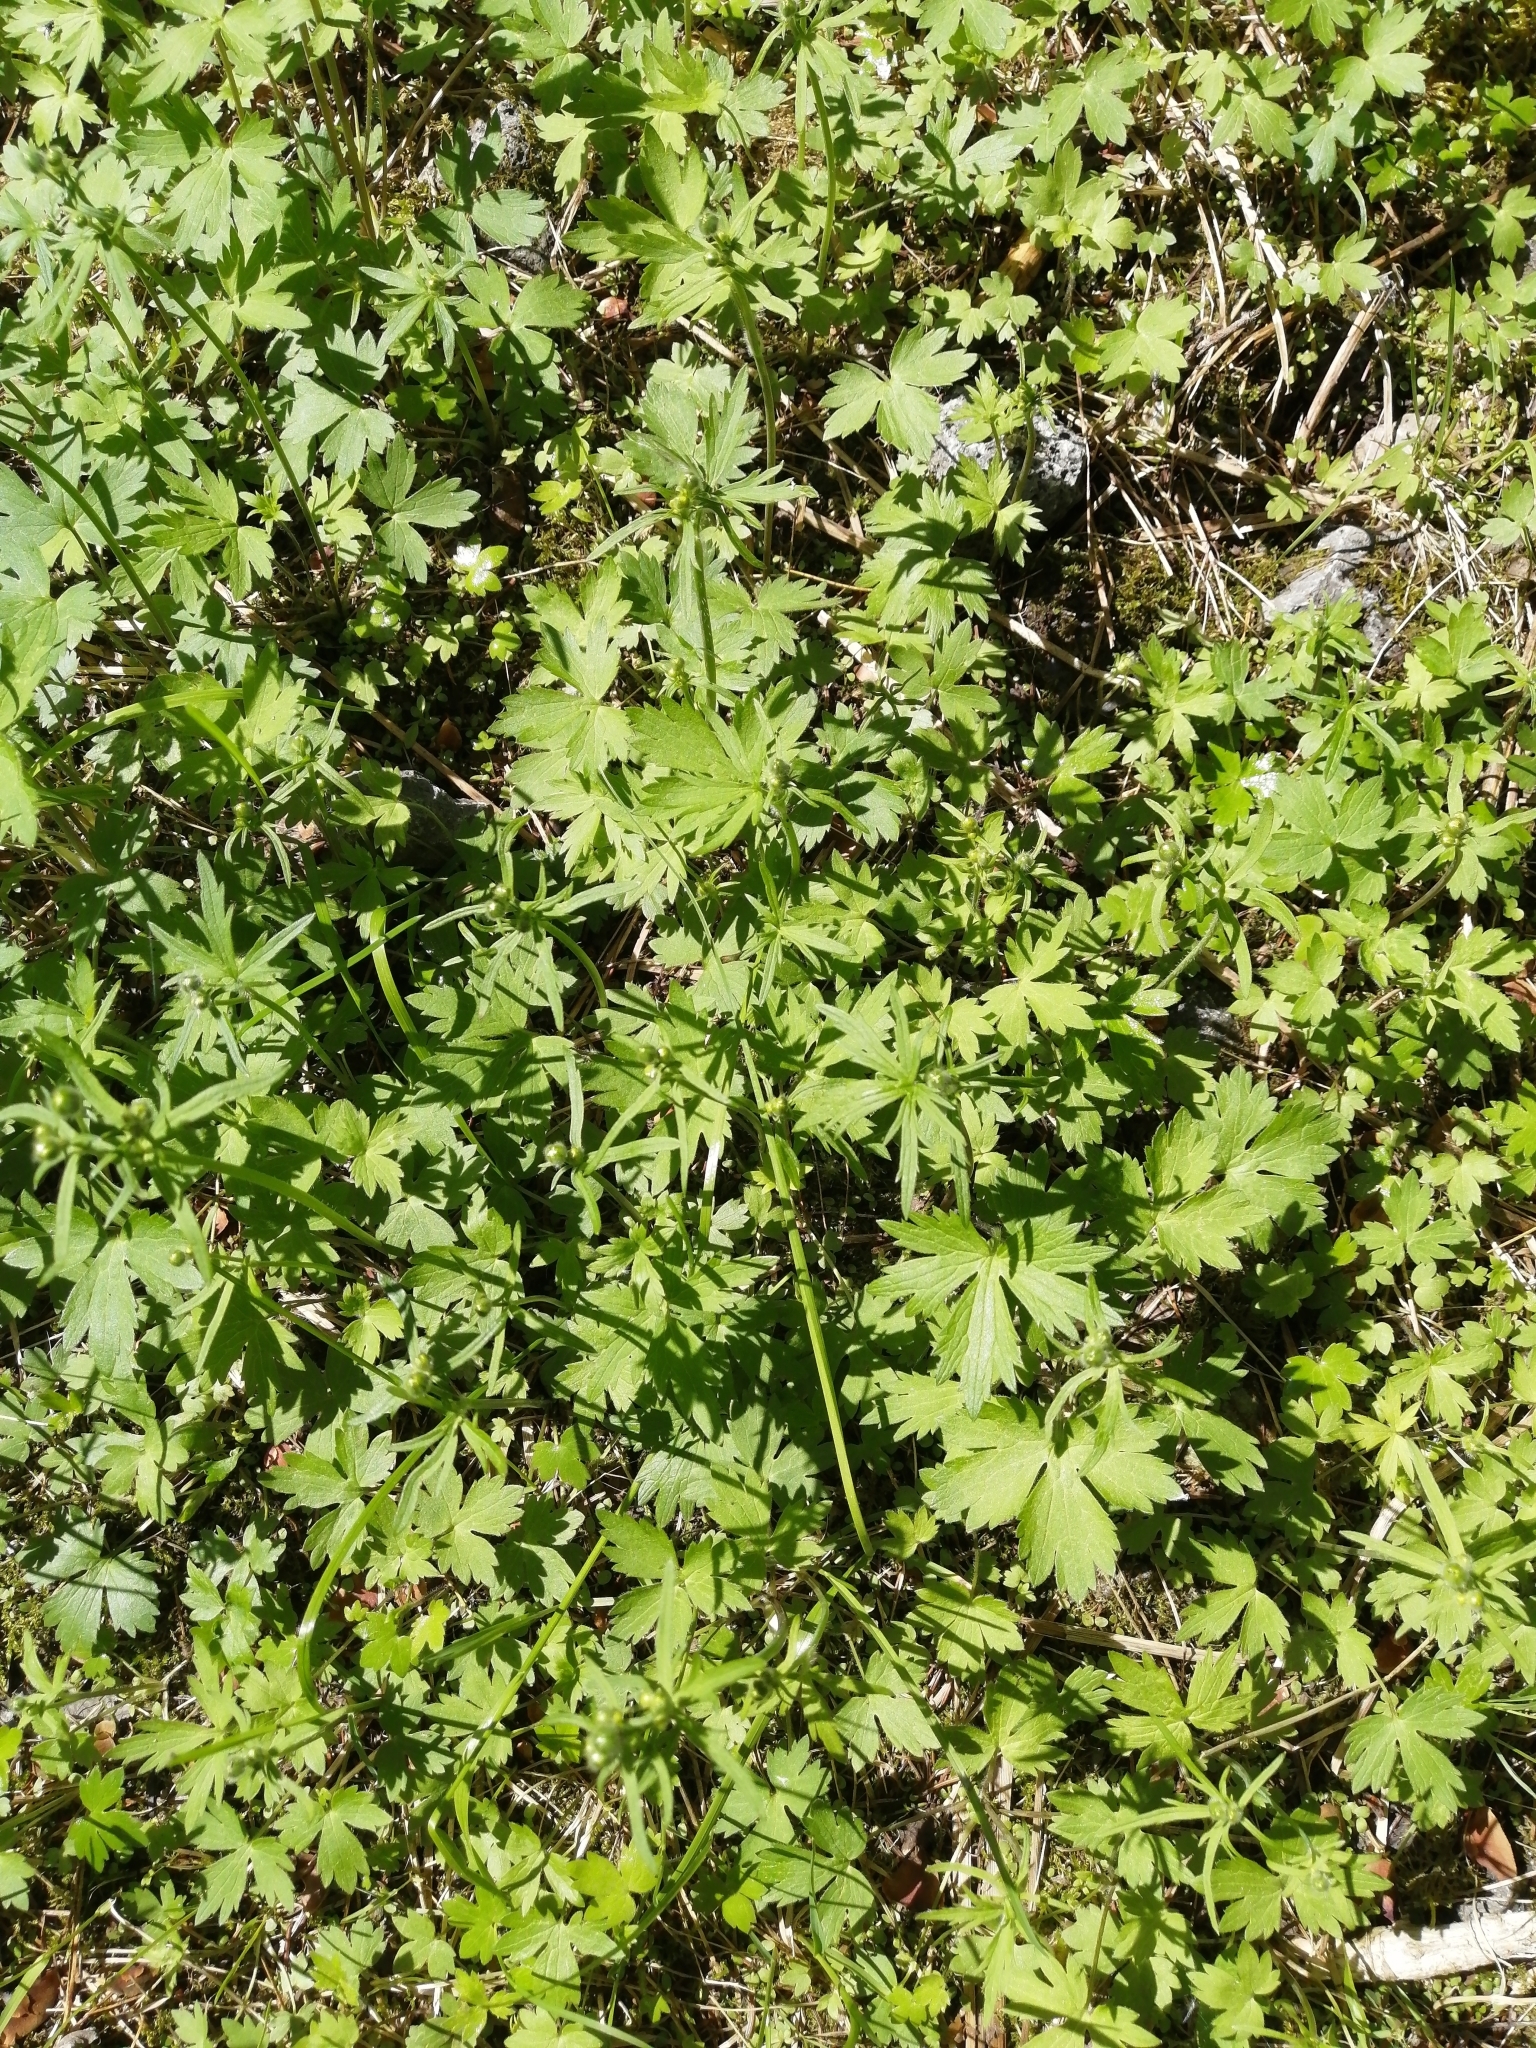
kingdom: Plantae
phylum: Tracheophyta
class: Magnoliopsida
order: Ranunculales
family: Ranunculaceae
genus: Ranunculus
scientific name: Ranunculus propinquus
